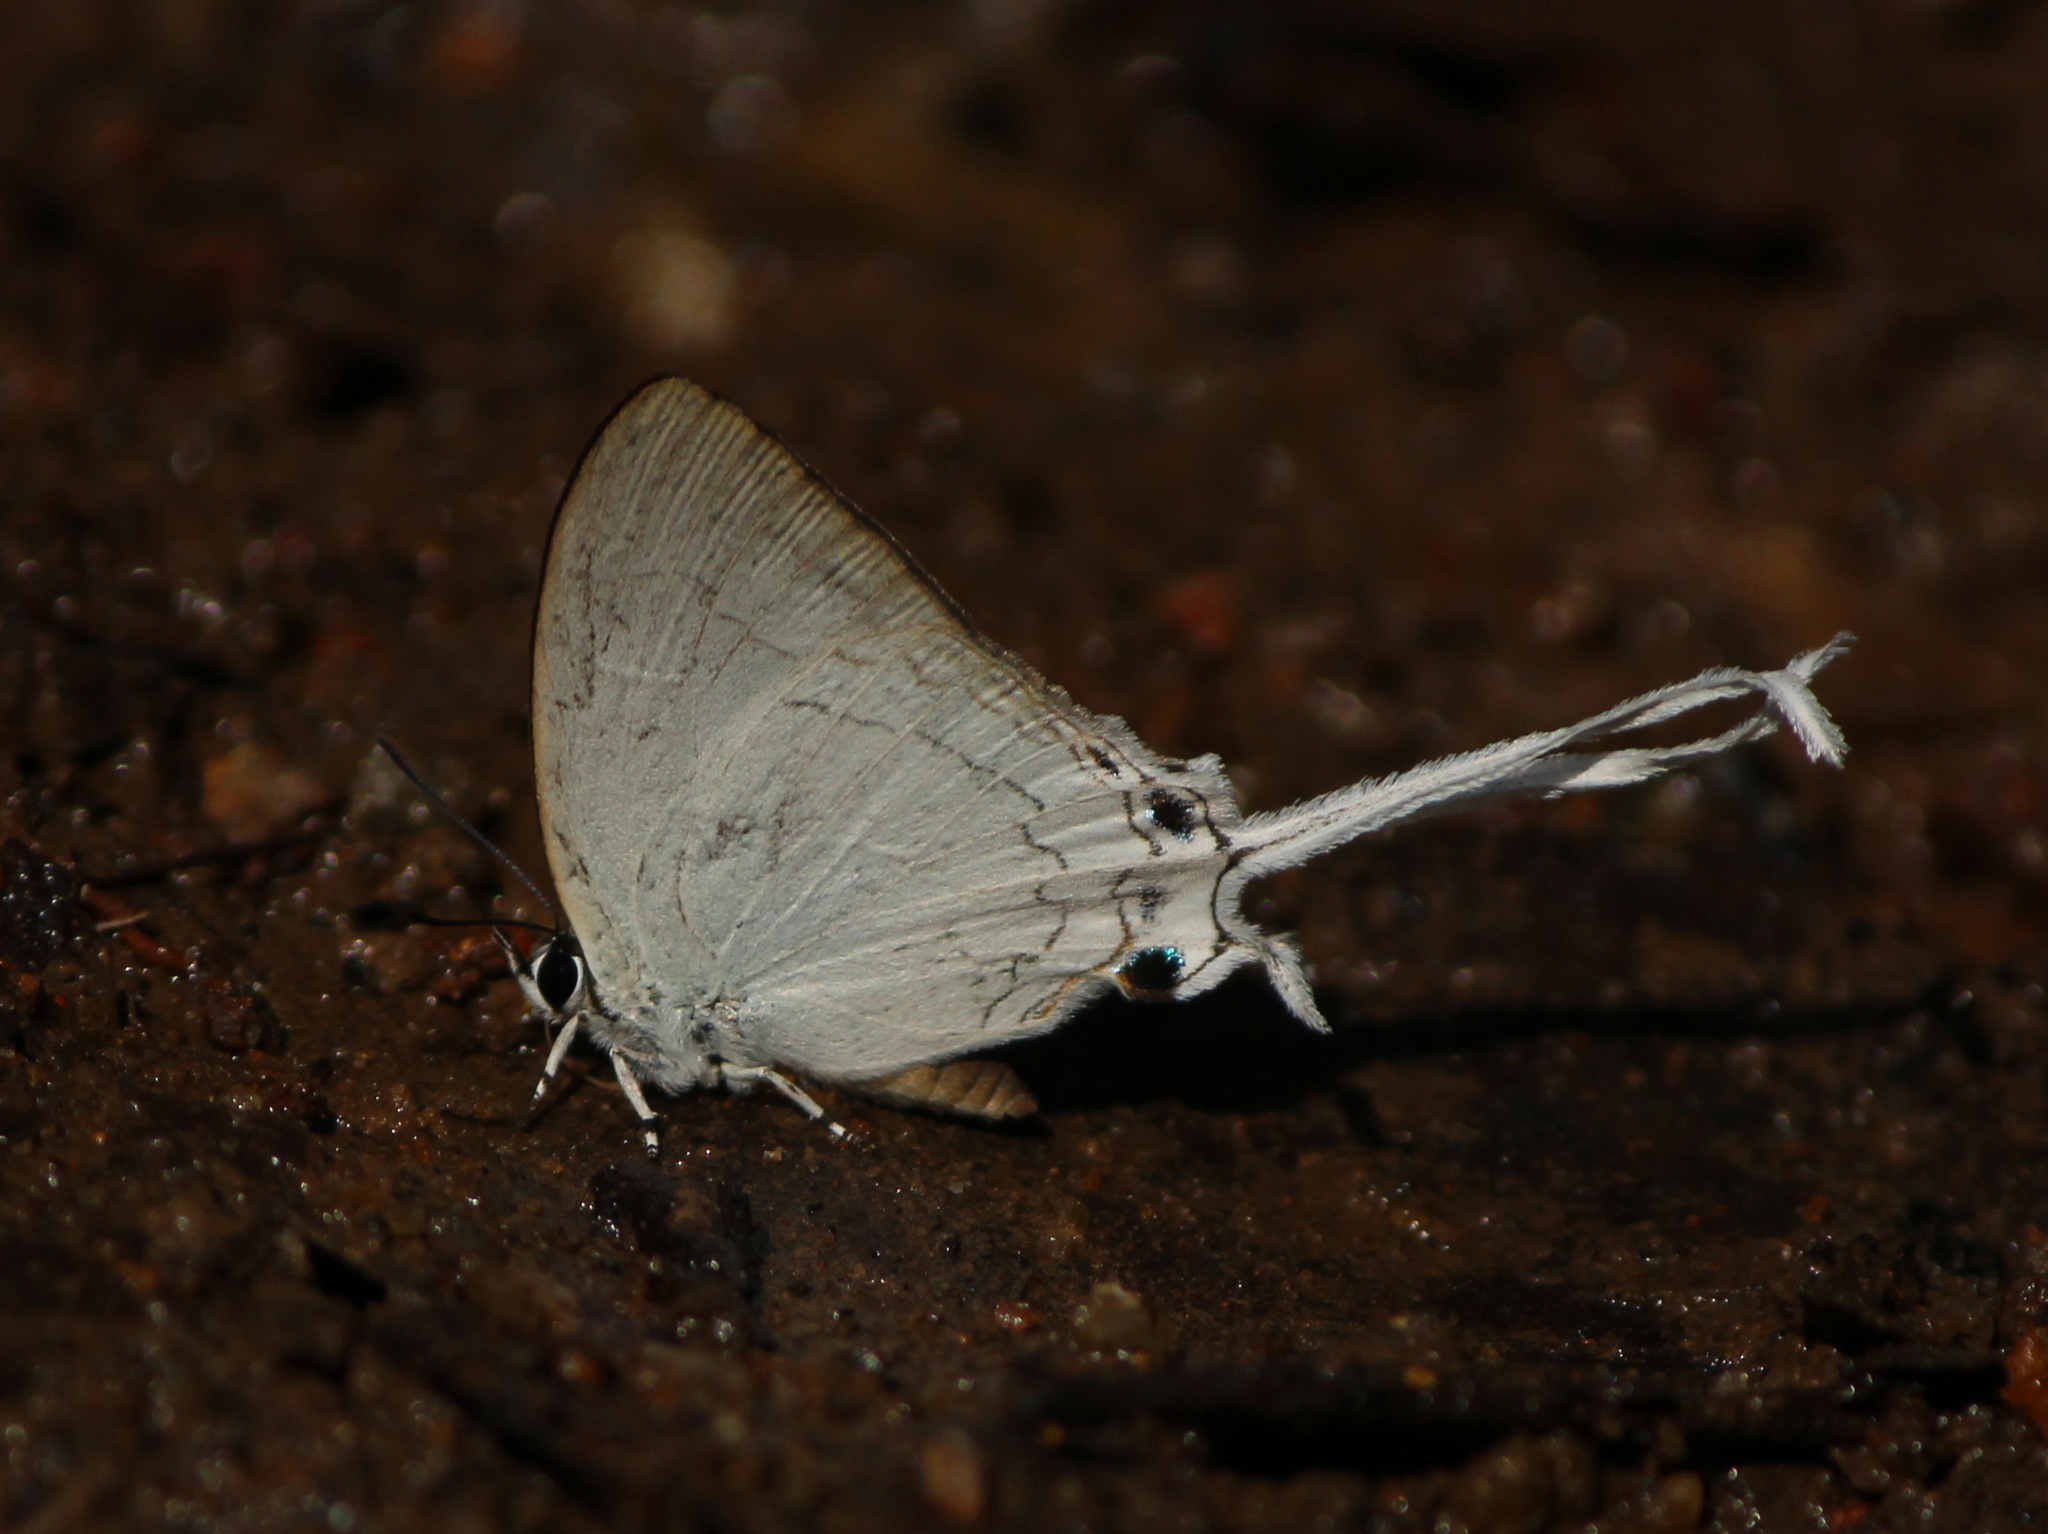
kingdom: Animalia
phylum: Arthropoda
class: Insecta
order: Lepidoptera
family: Lycaenidae
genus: Cheritra
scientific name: Cheritra freja
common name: Common imperial
